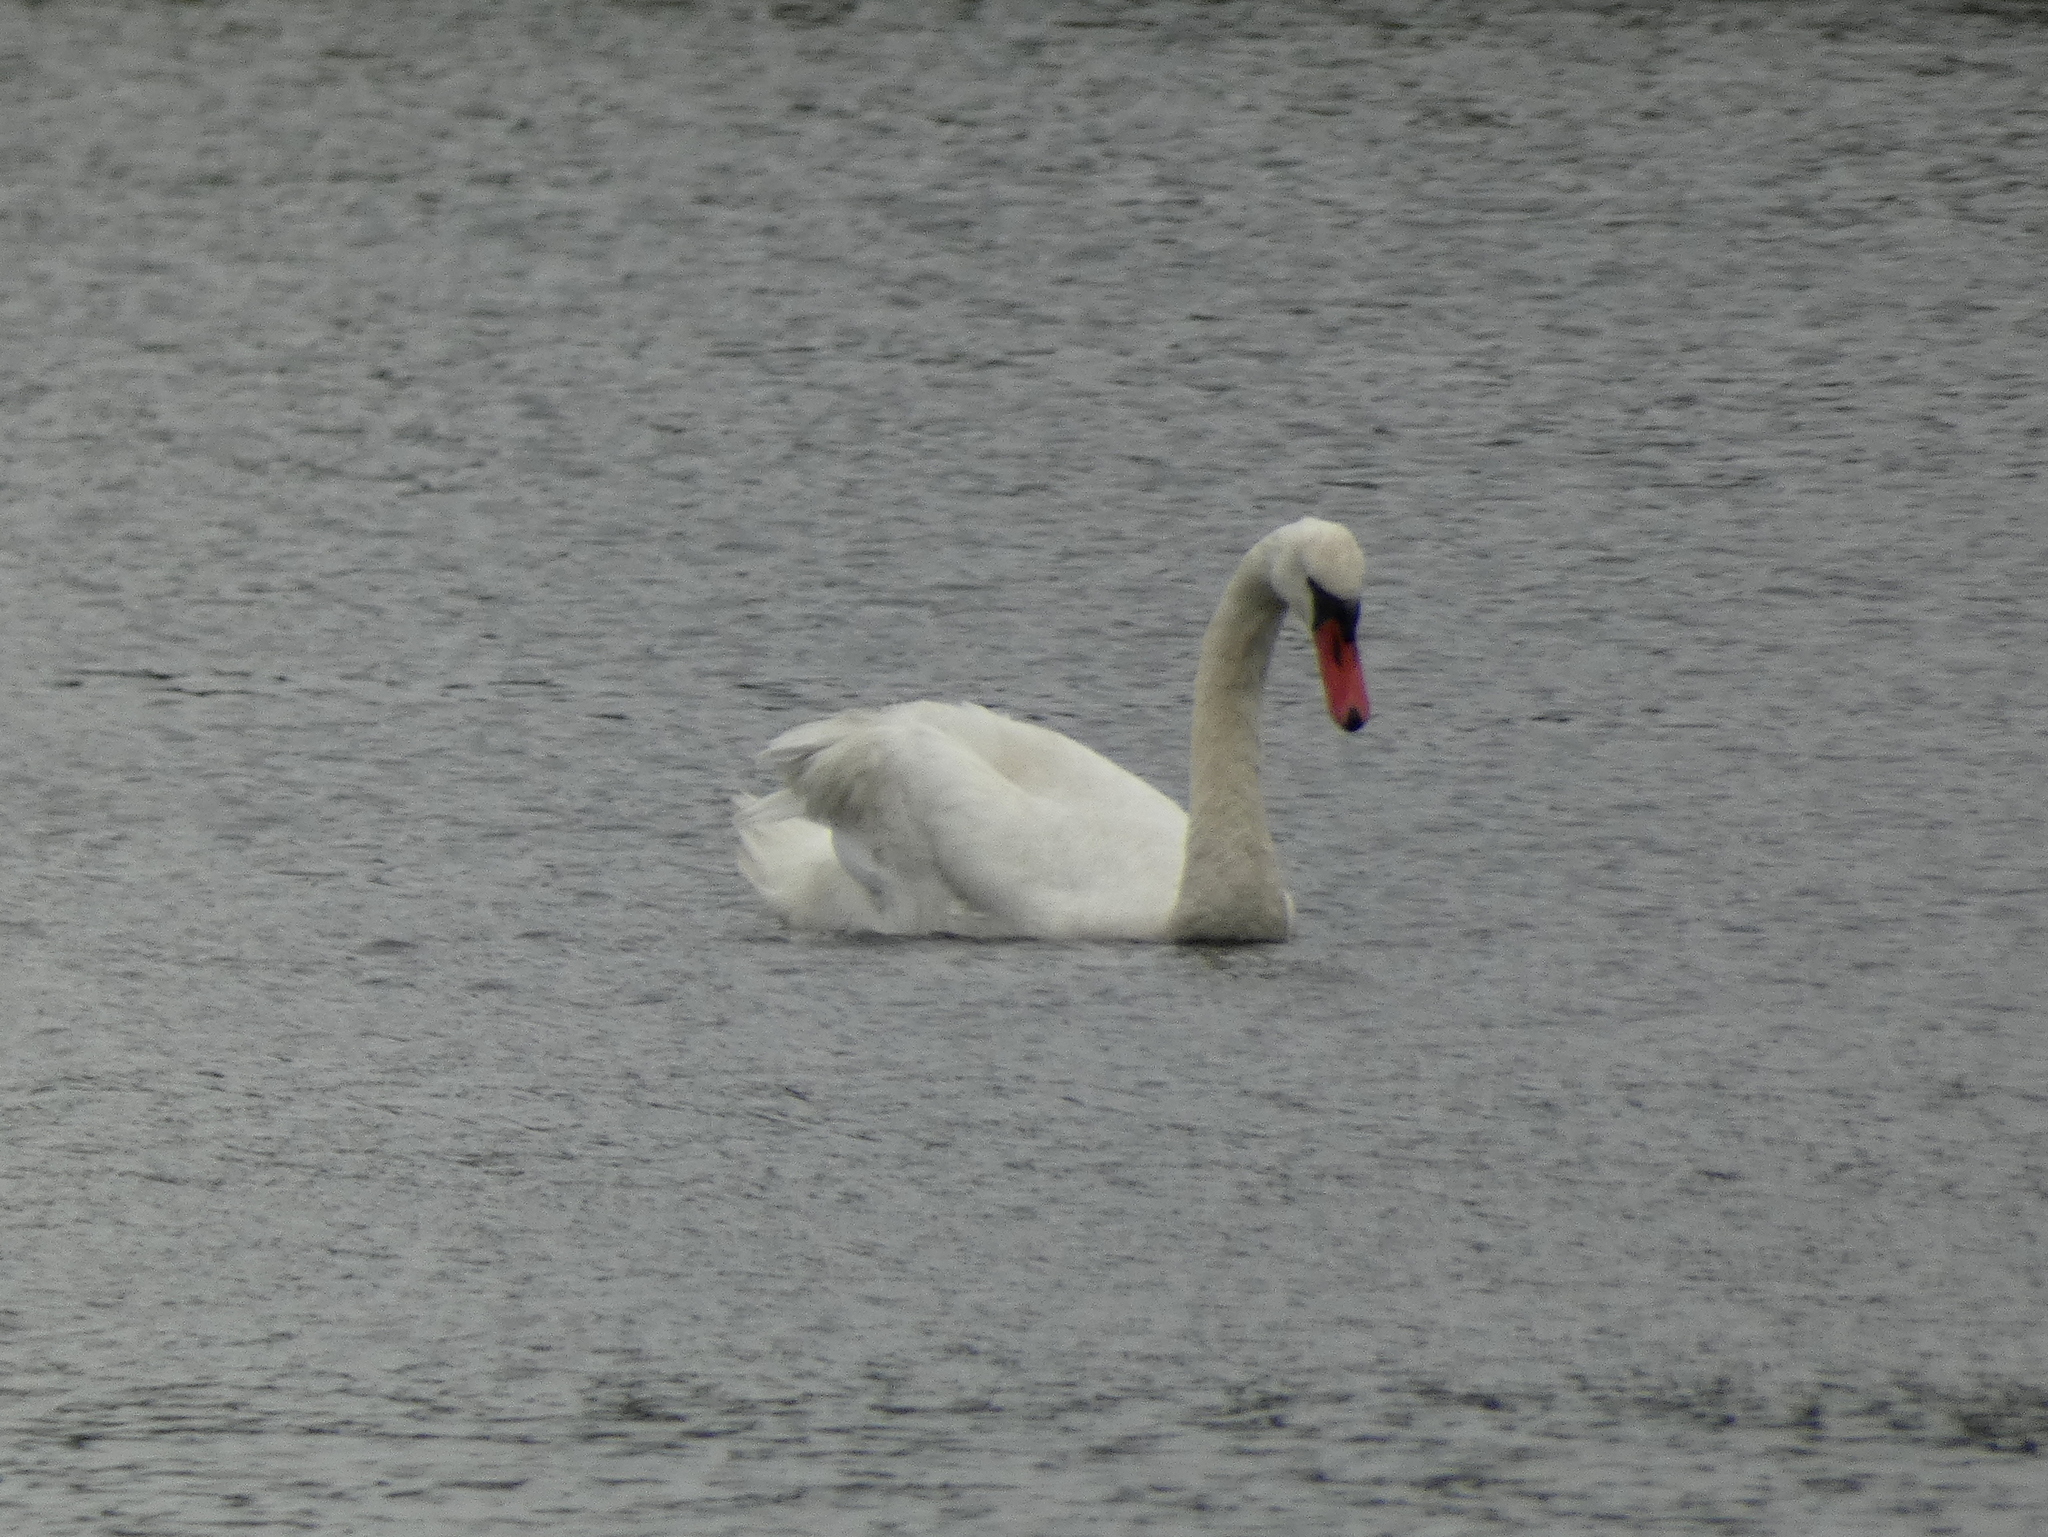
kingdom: Animalia
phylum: Chordata
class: Aves
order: Anseriformes
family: Anatidae
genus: Cygnus
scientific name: Cygnus olor
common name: Mute swan
